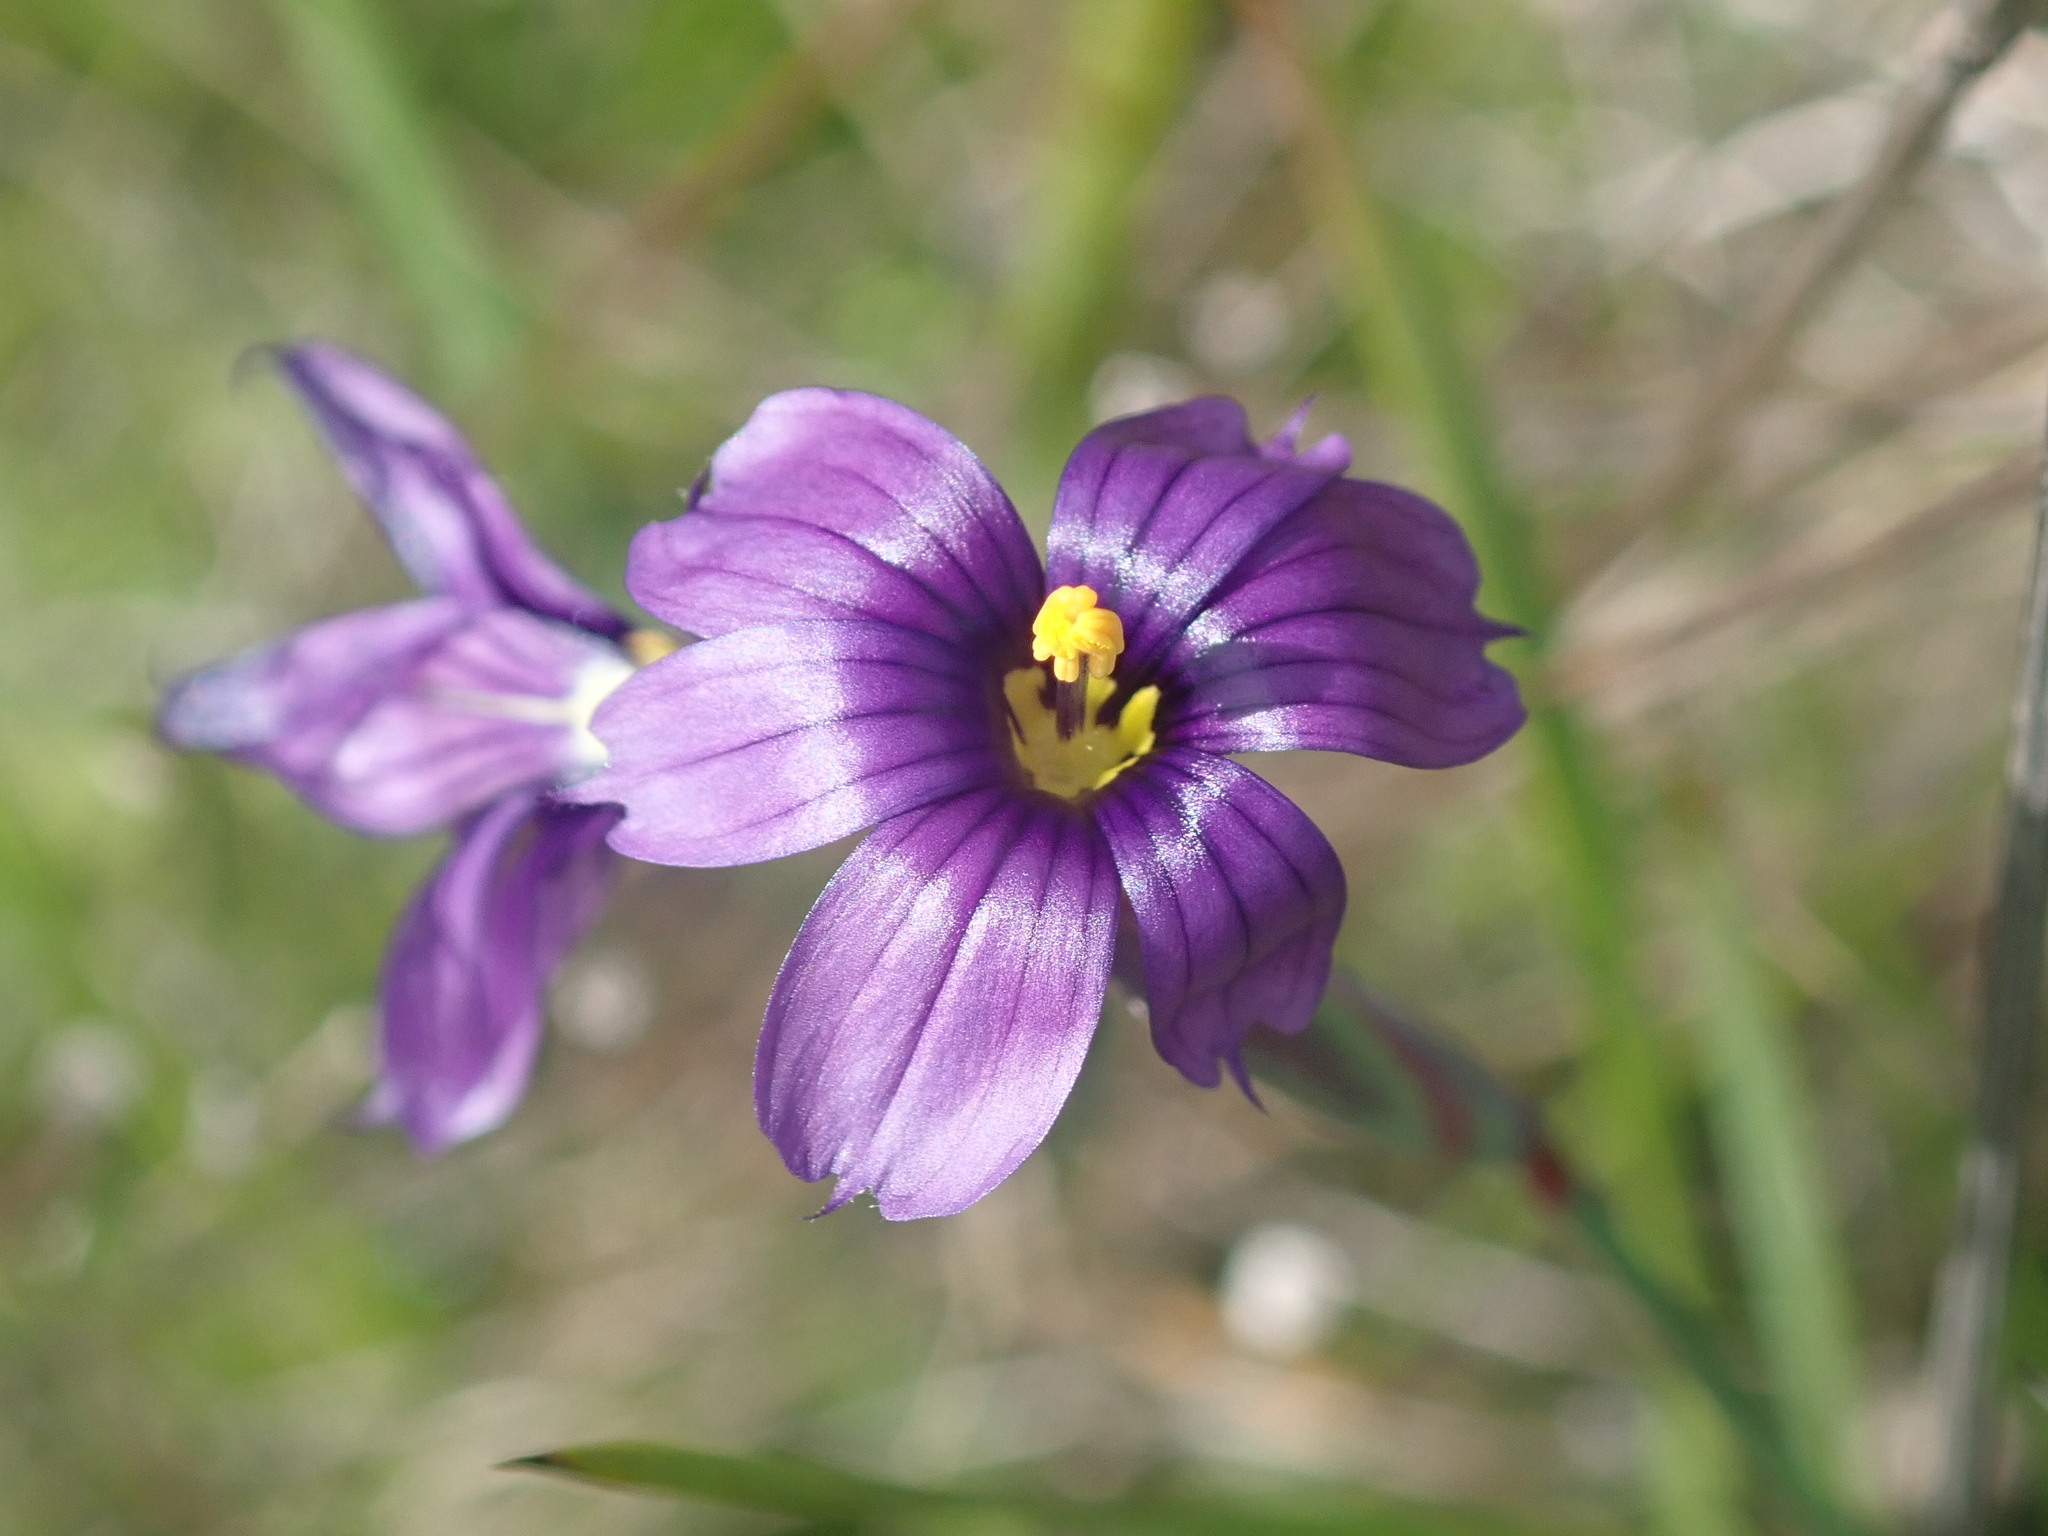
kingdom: Plantae
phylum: Tracheophyta
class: Liliopsida
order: Asparagales
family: Iridaceae
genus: Sisyrinchium
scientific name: Sisyrinchium bellum
